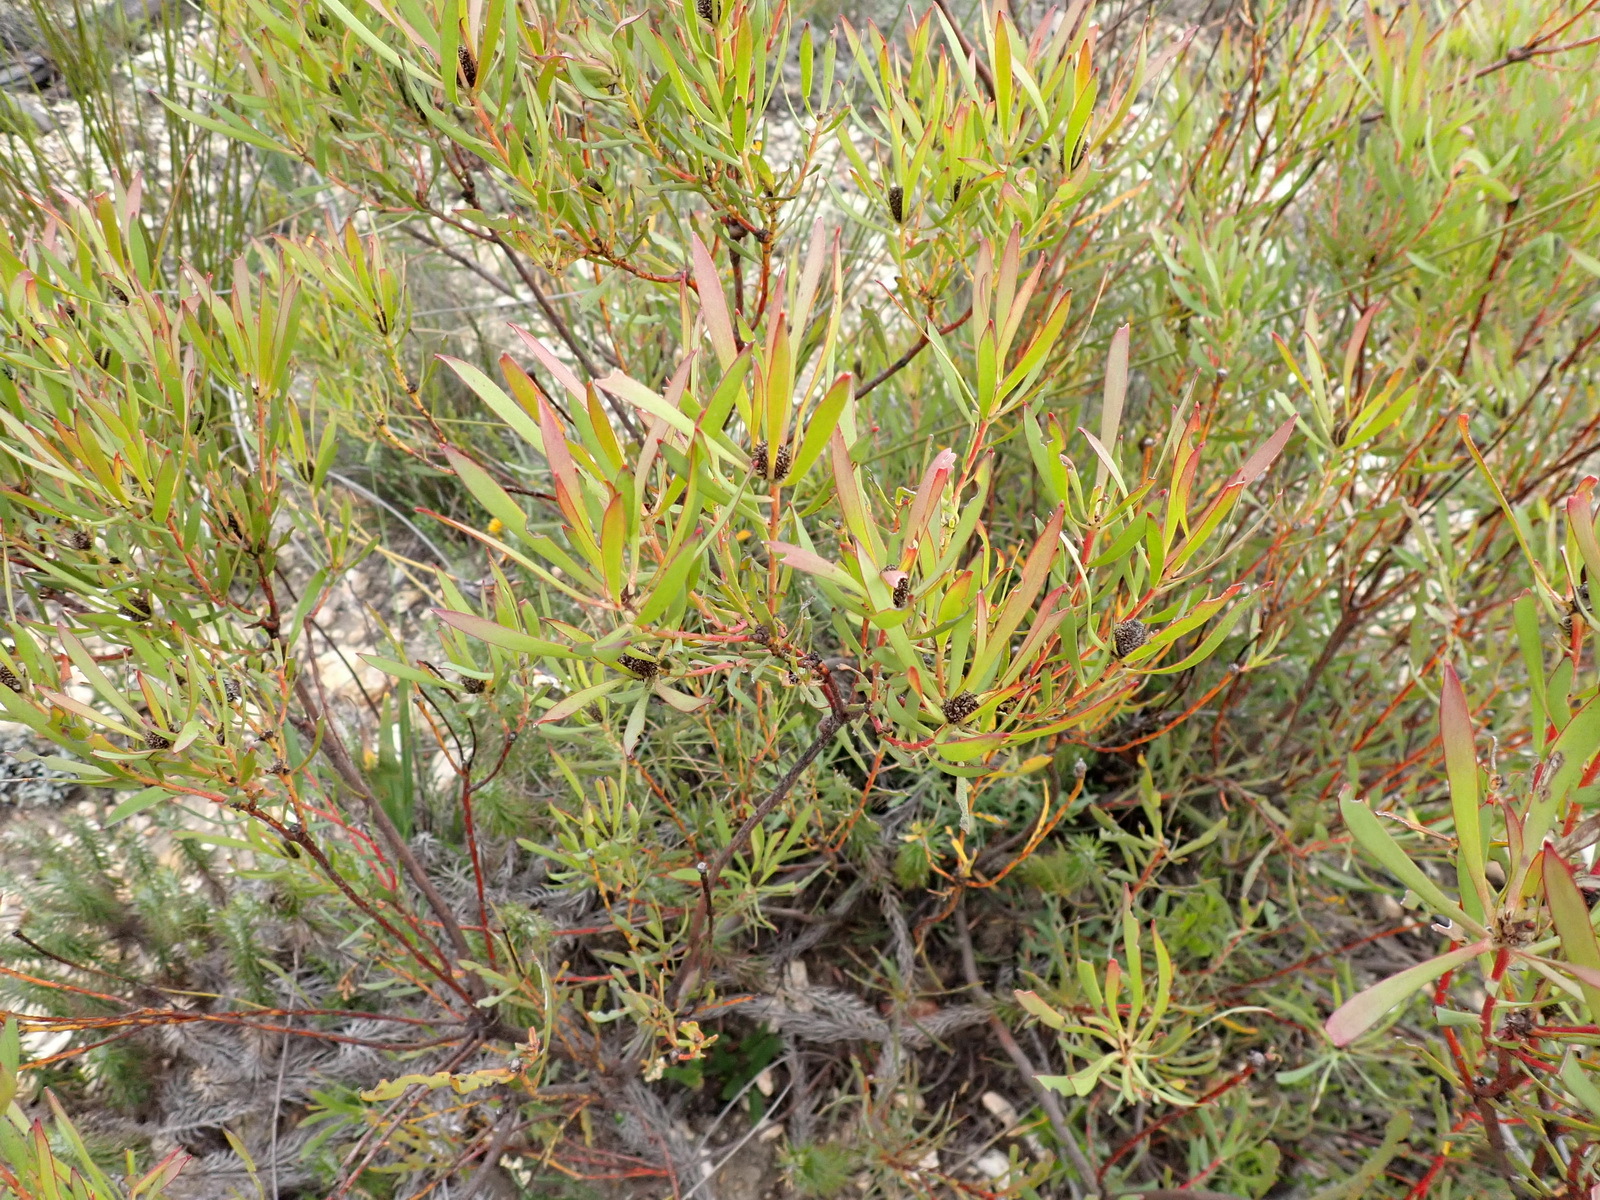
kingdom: Plantae
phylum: Tracheophyta
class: Magnoliopsida
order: Proteales
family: Proteaceae
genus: Leucadendron
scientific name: Leucadendron salignum
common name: Common sunshine conebush
